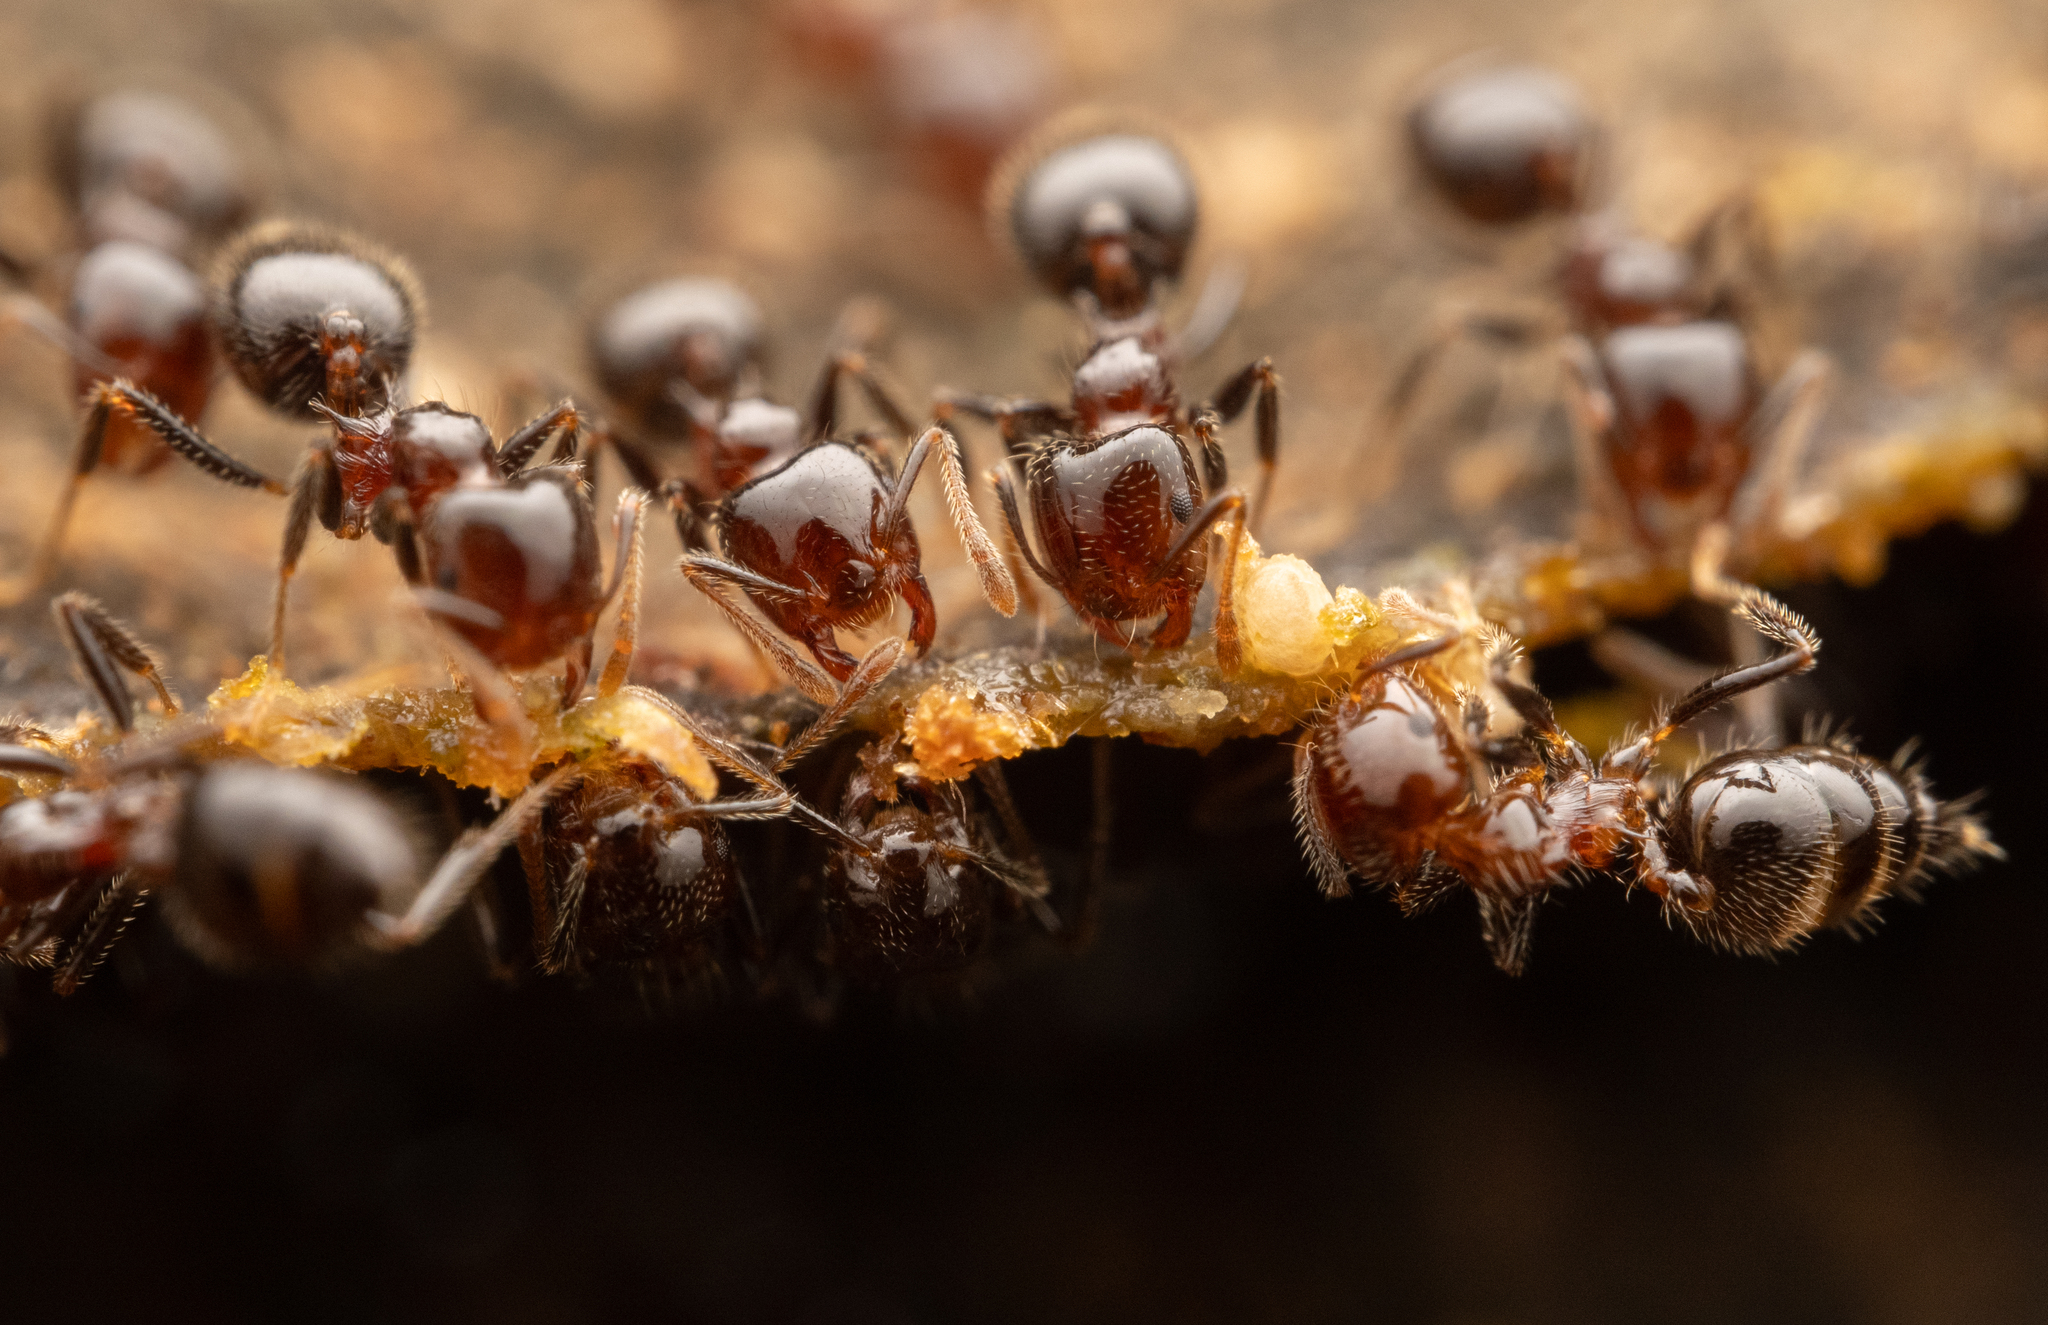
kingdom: Animalia
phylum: Arthropoda
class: Insecta
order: Hymenoptera
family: Formicidae
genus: Crematogaster
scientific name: Crematogaster polita
